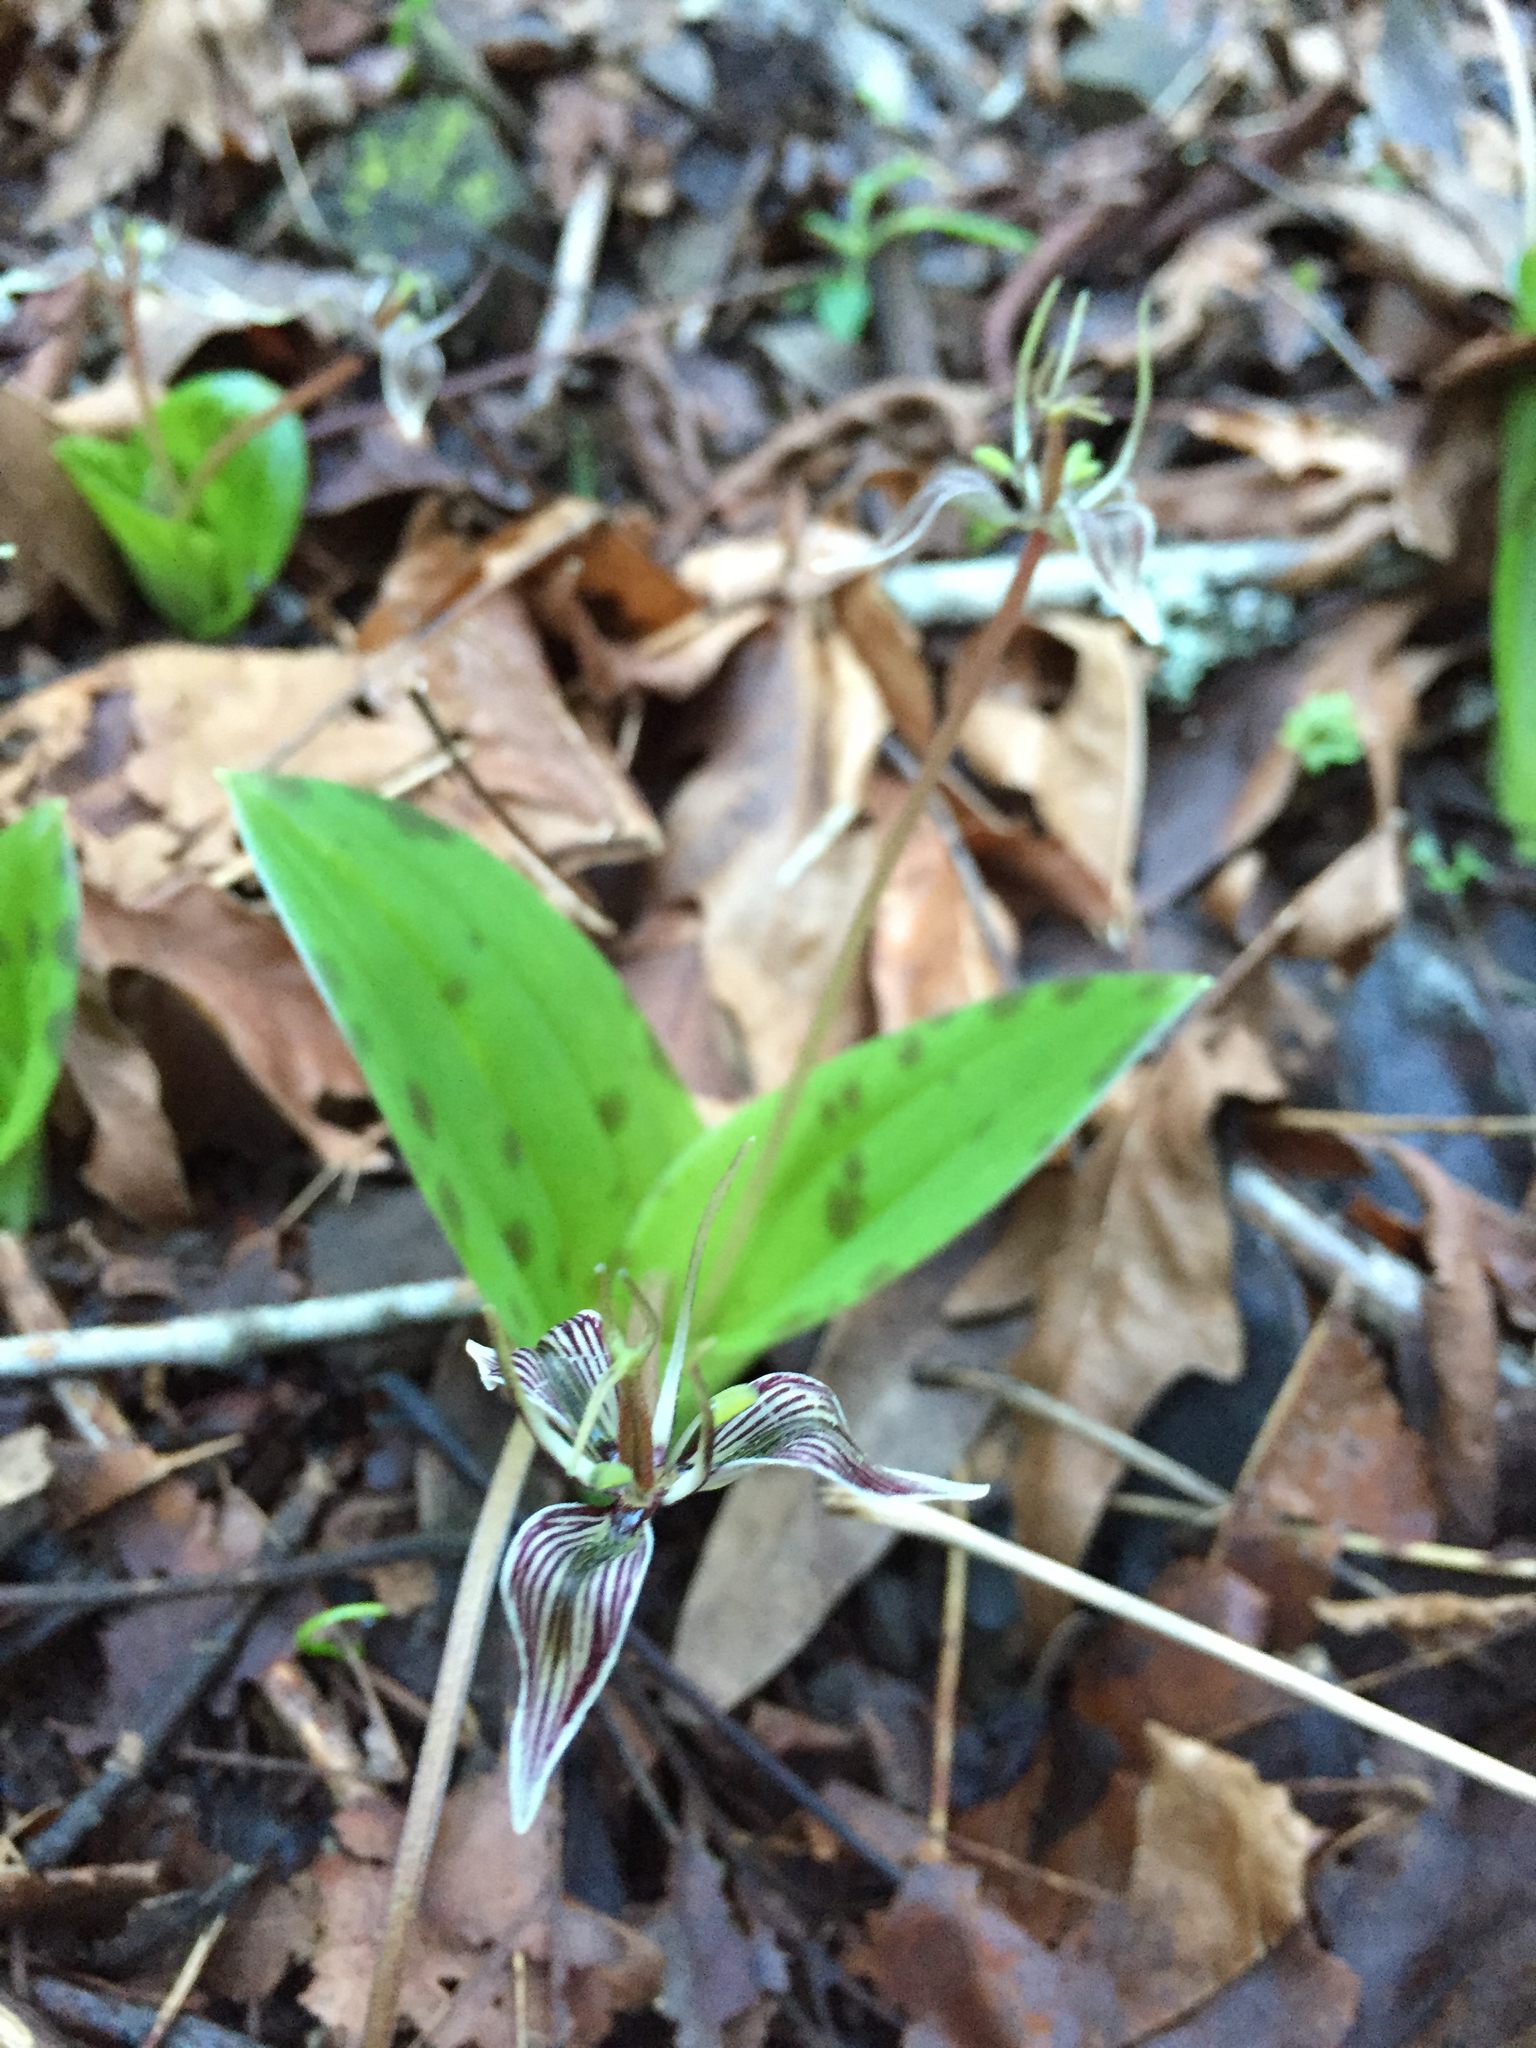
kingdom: Plantae
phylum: Tracheophyta
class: Liliopsida
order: Liliales
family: Liliaceae
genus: Scoliopus
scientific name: Scoliopus bigelovii
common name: Foetid adder's-tongue
